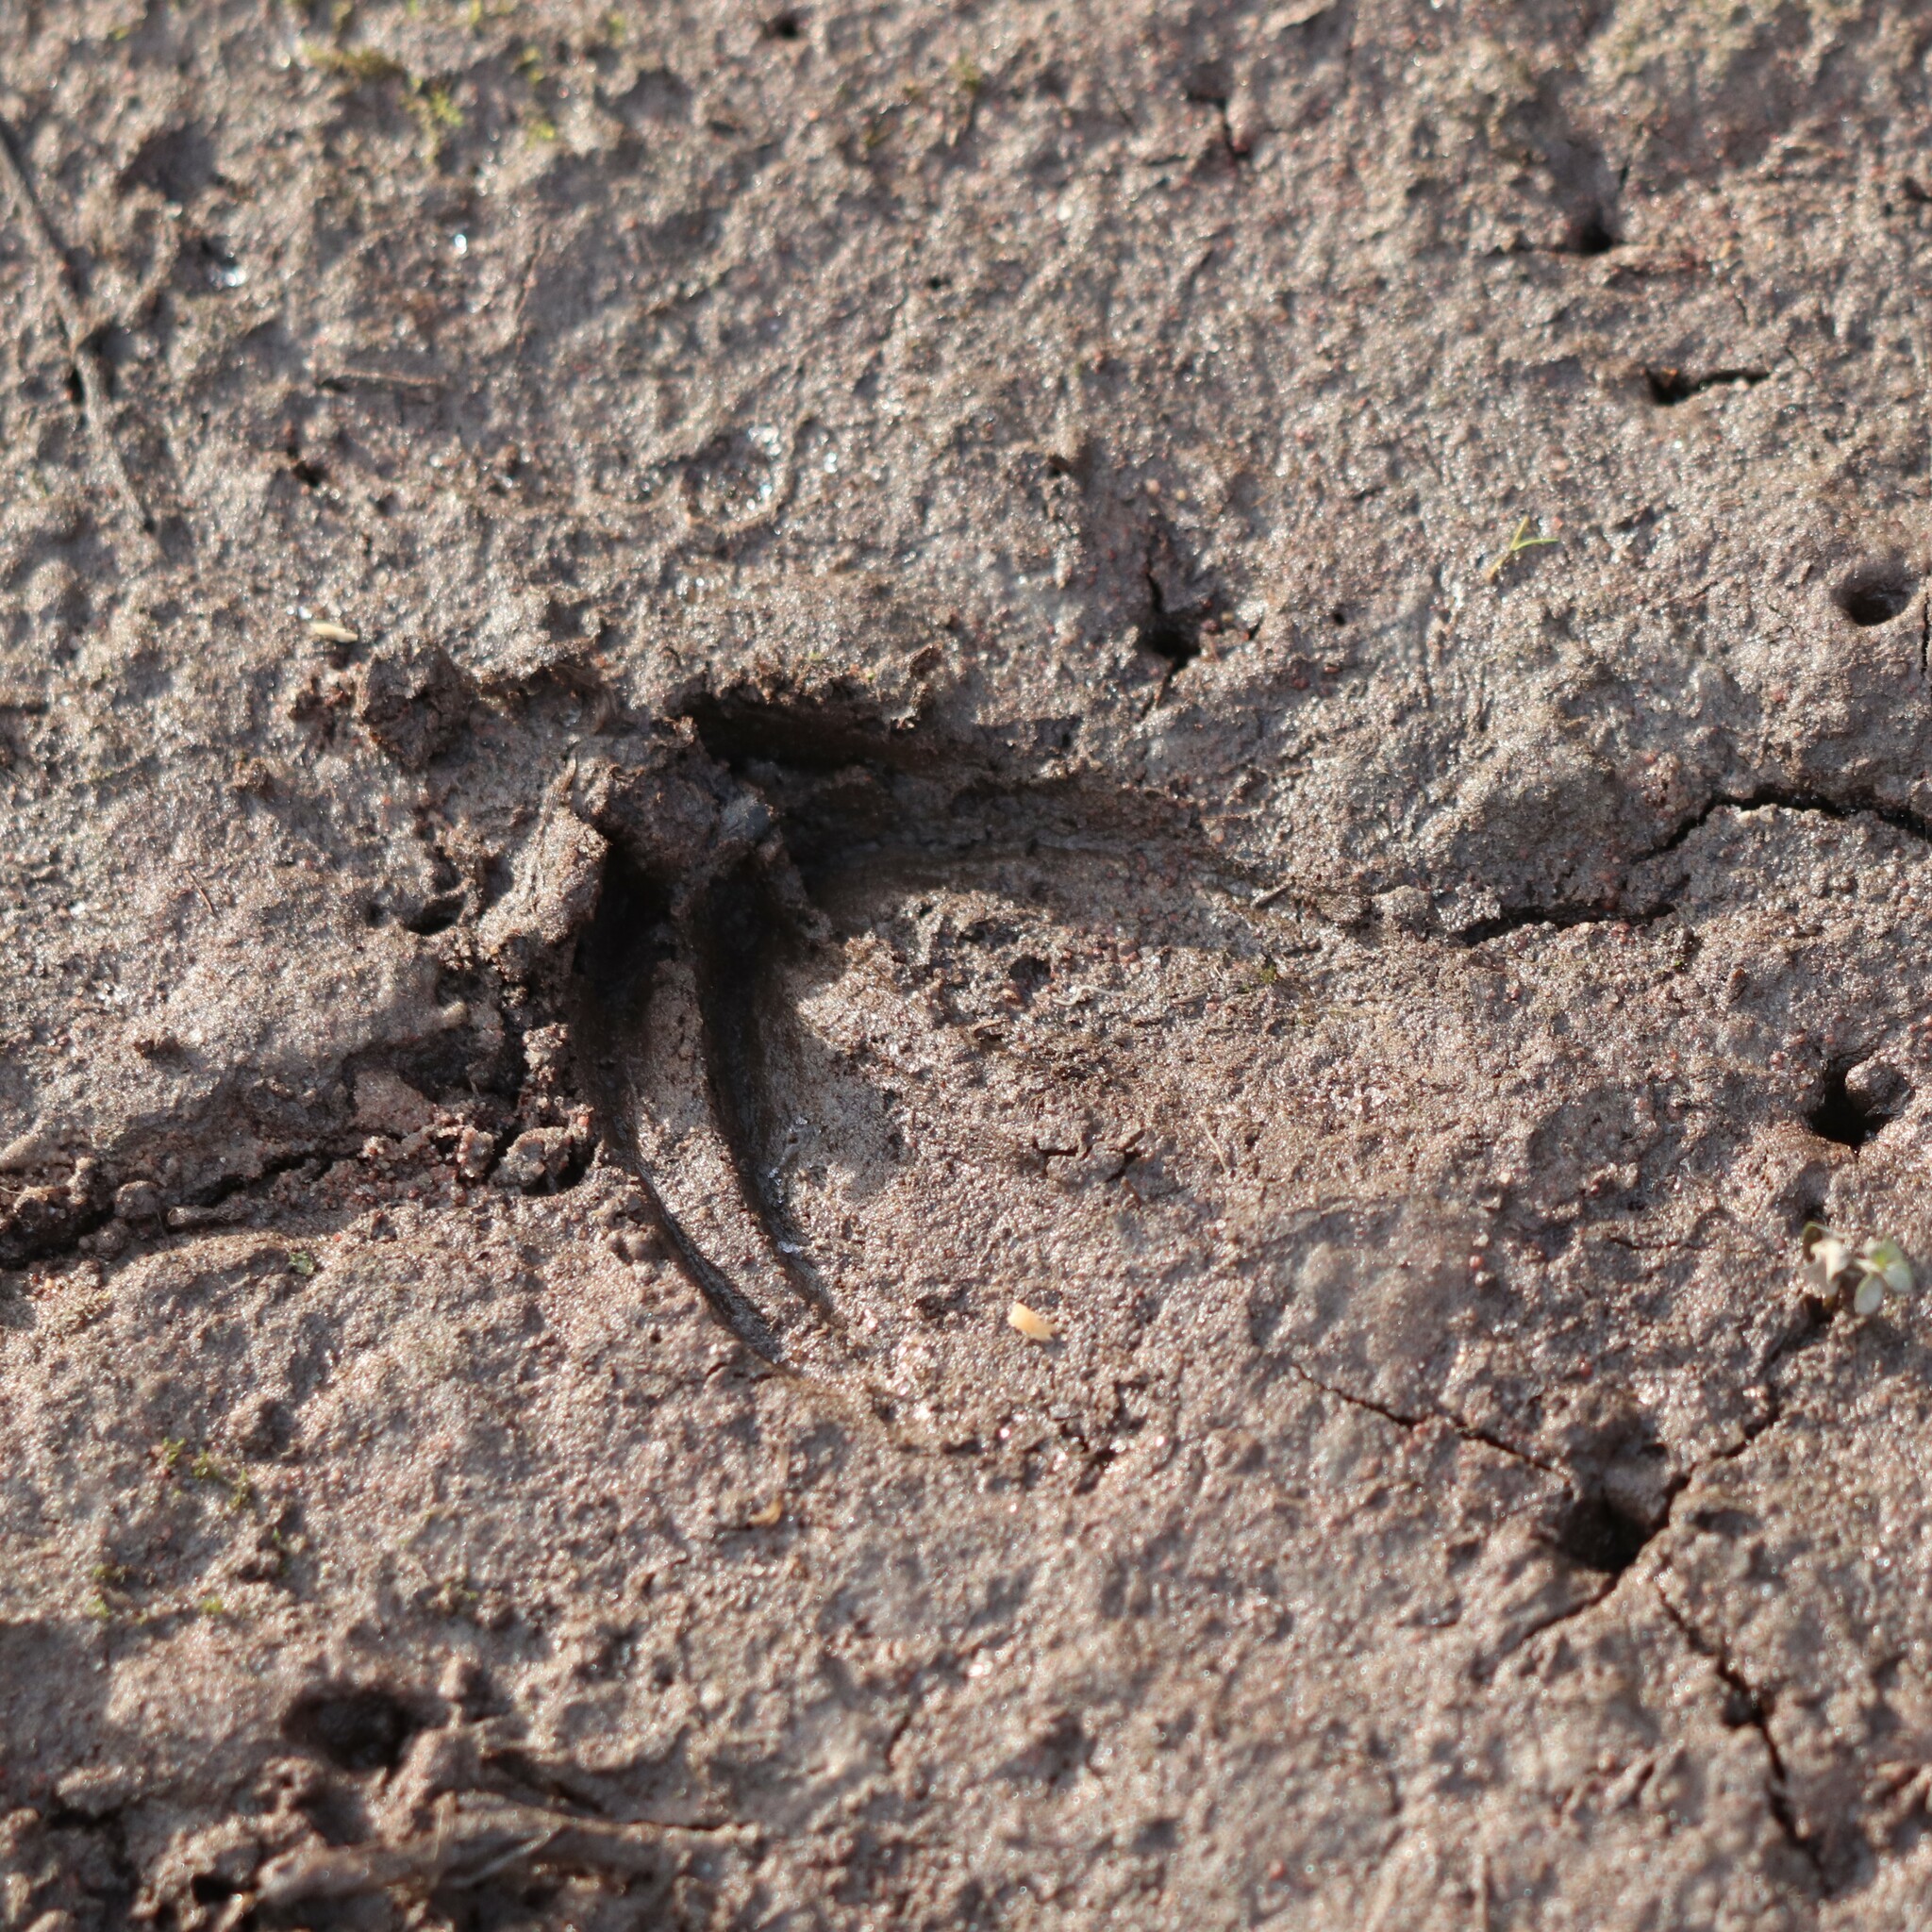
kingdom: Animalia
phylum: Chordata
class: Mammalia
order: Artiodactyla
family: Cervidae
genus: Odocoileus
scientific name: Odocoileus virginianus
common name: White-tailed deer
